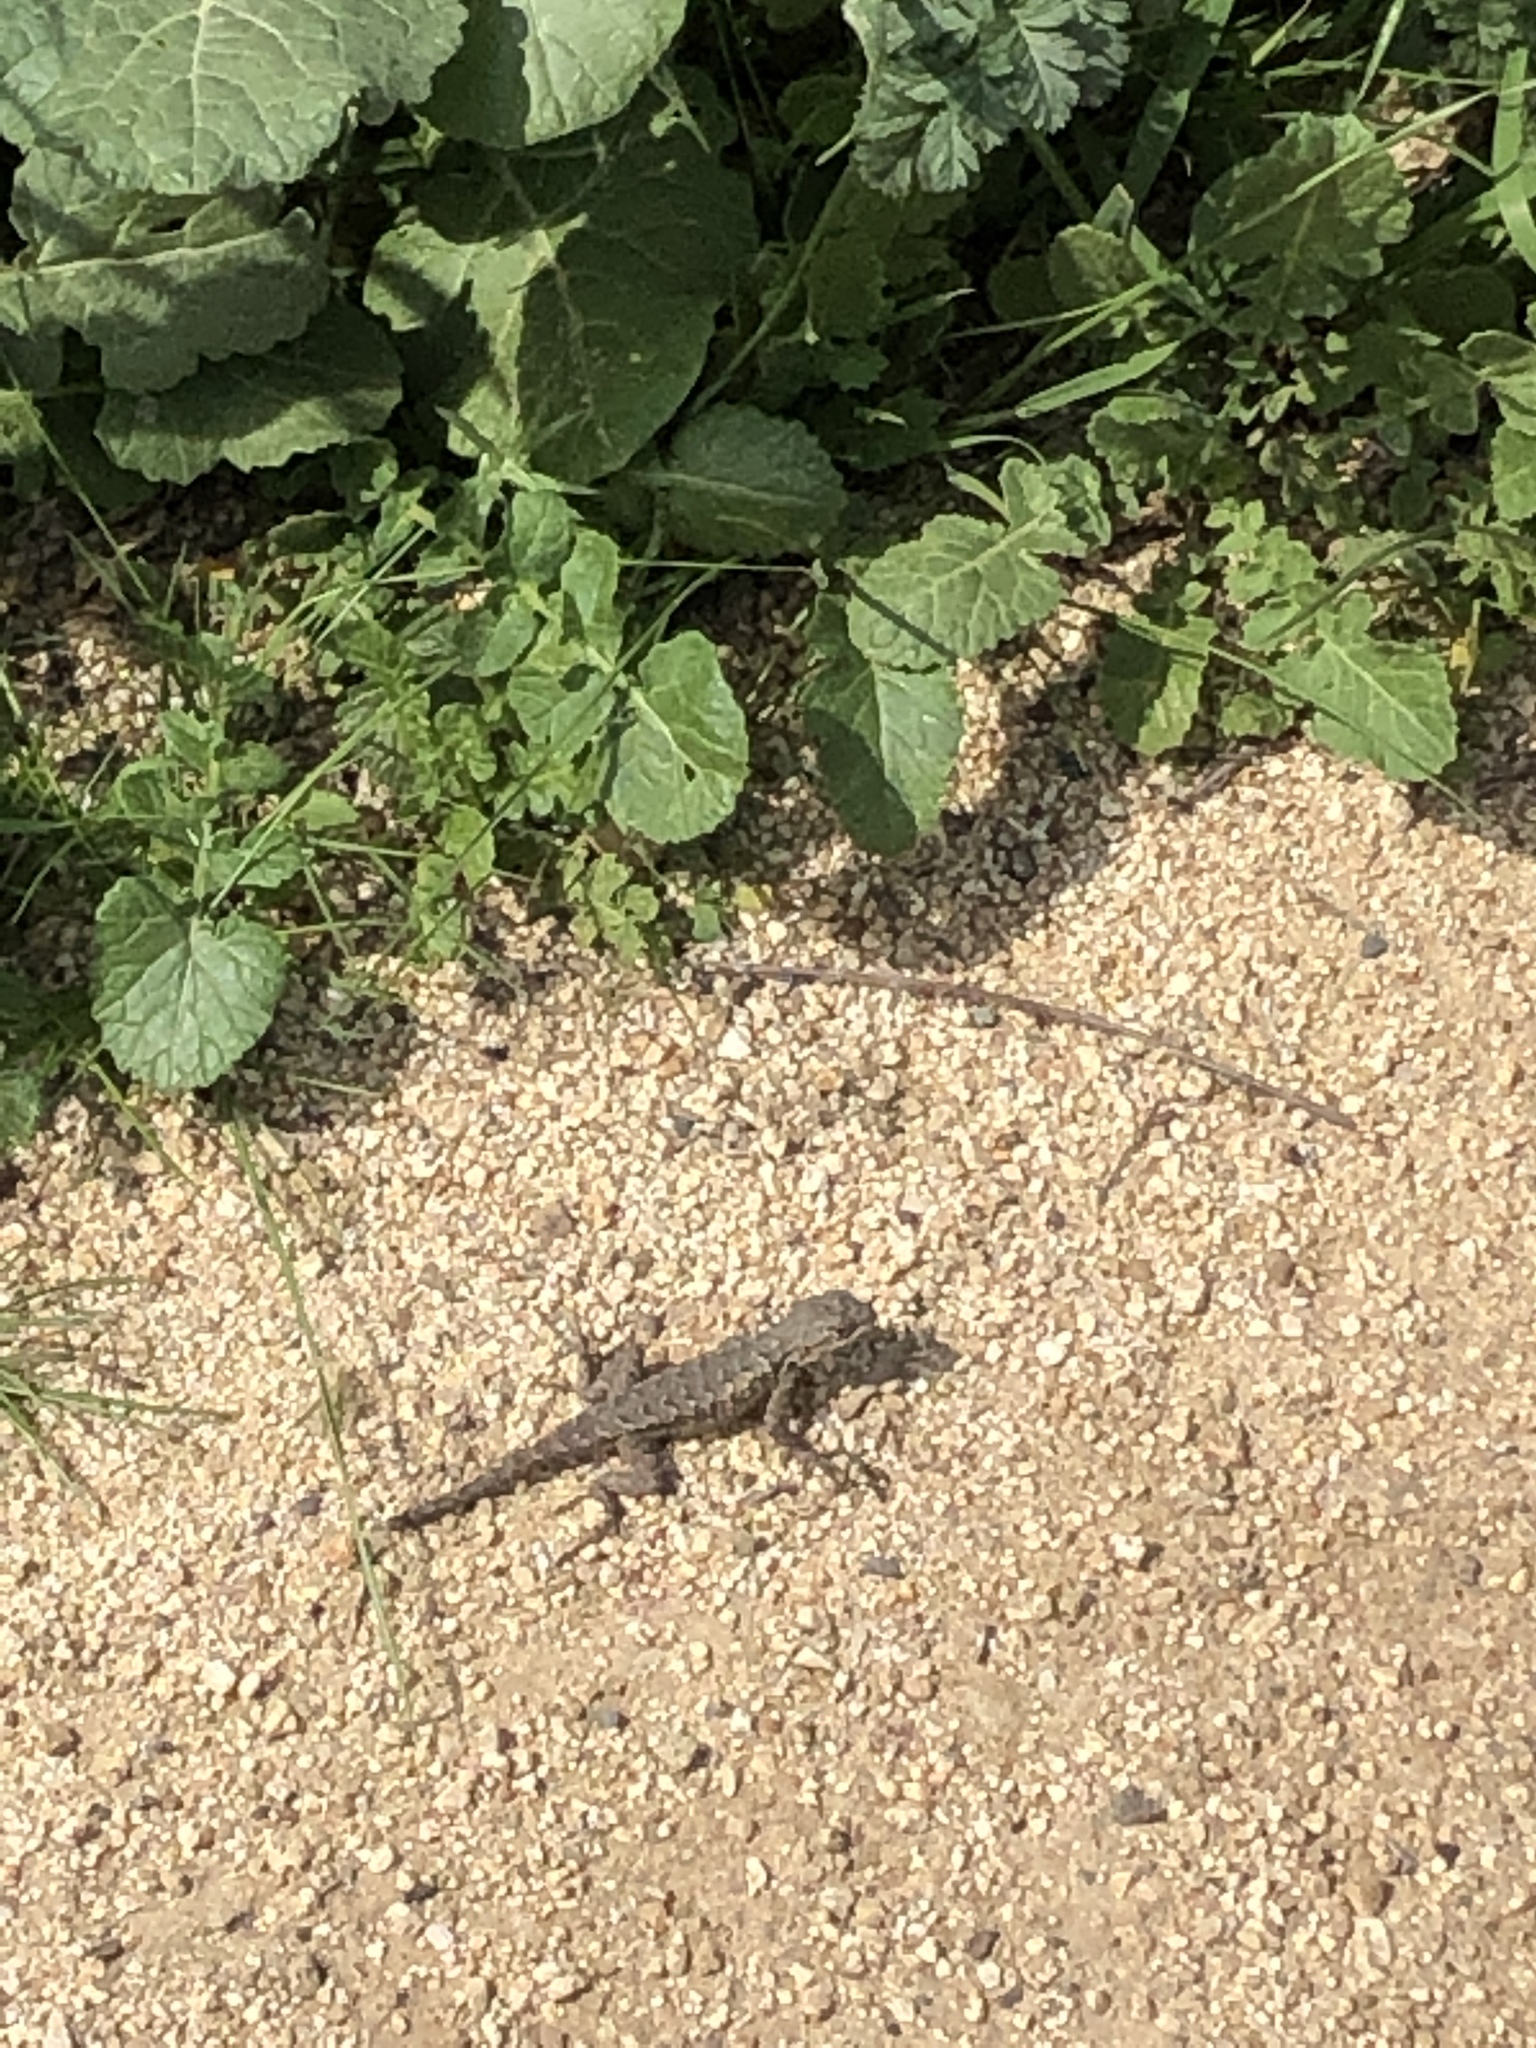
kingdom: Animalia
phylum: Chordata
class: Squamata
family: Phrynosomatidae
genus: Sceloporus
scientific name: Sceloporus occidentalis
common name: Western fence lizard
